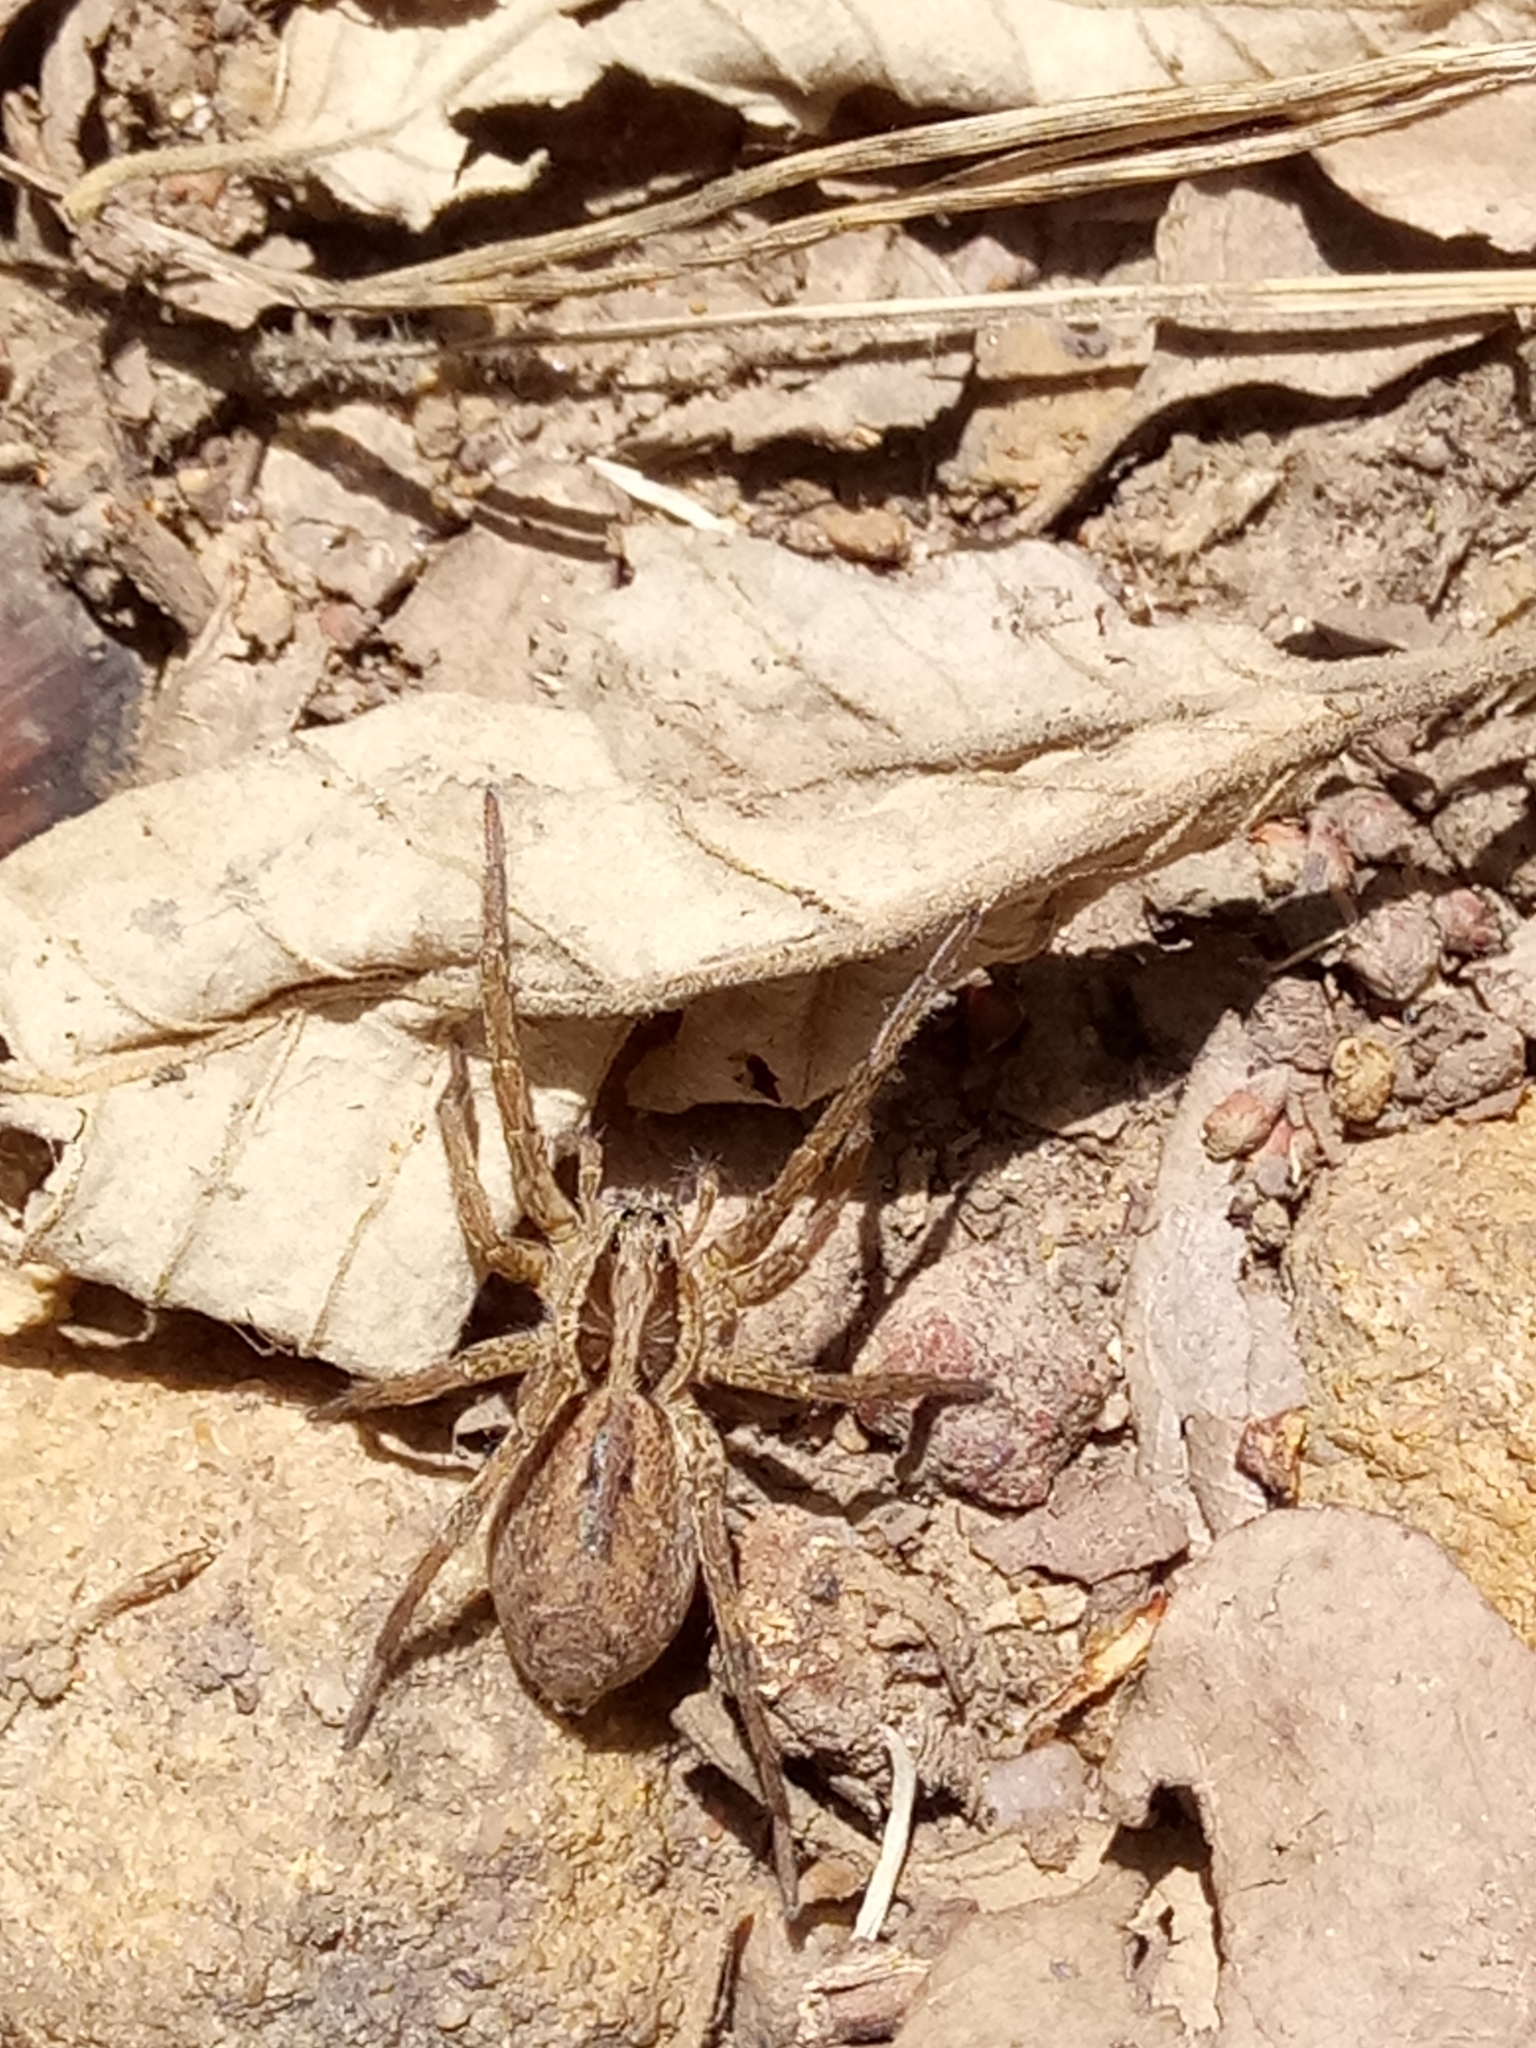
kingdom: Animalia
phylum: Arthropoda
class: Arachnida
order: Araneae
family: Lycosidae
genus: Hogna
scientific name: Hogna radiata
